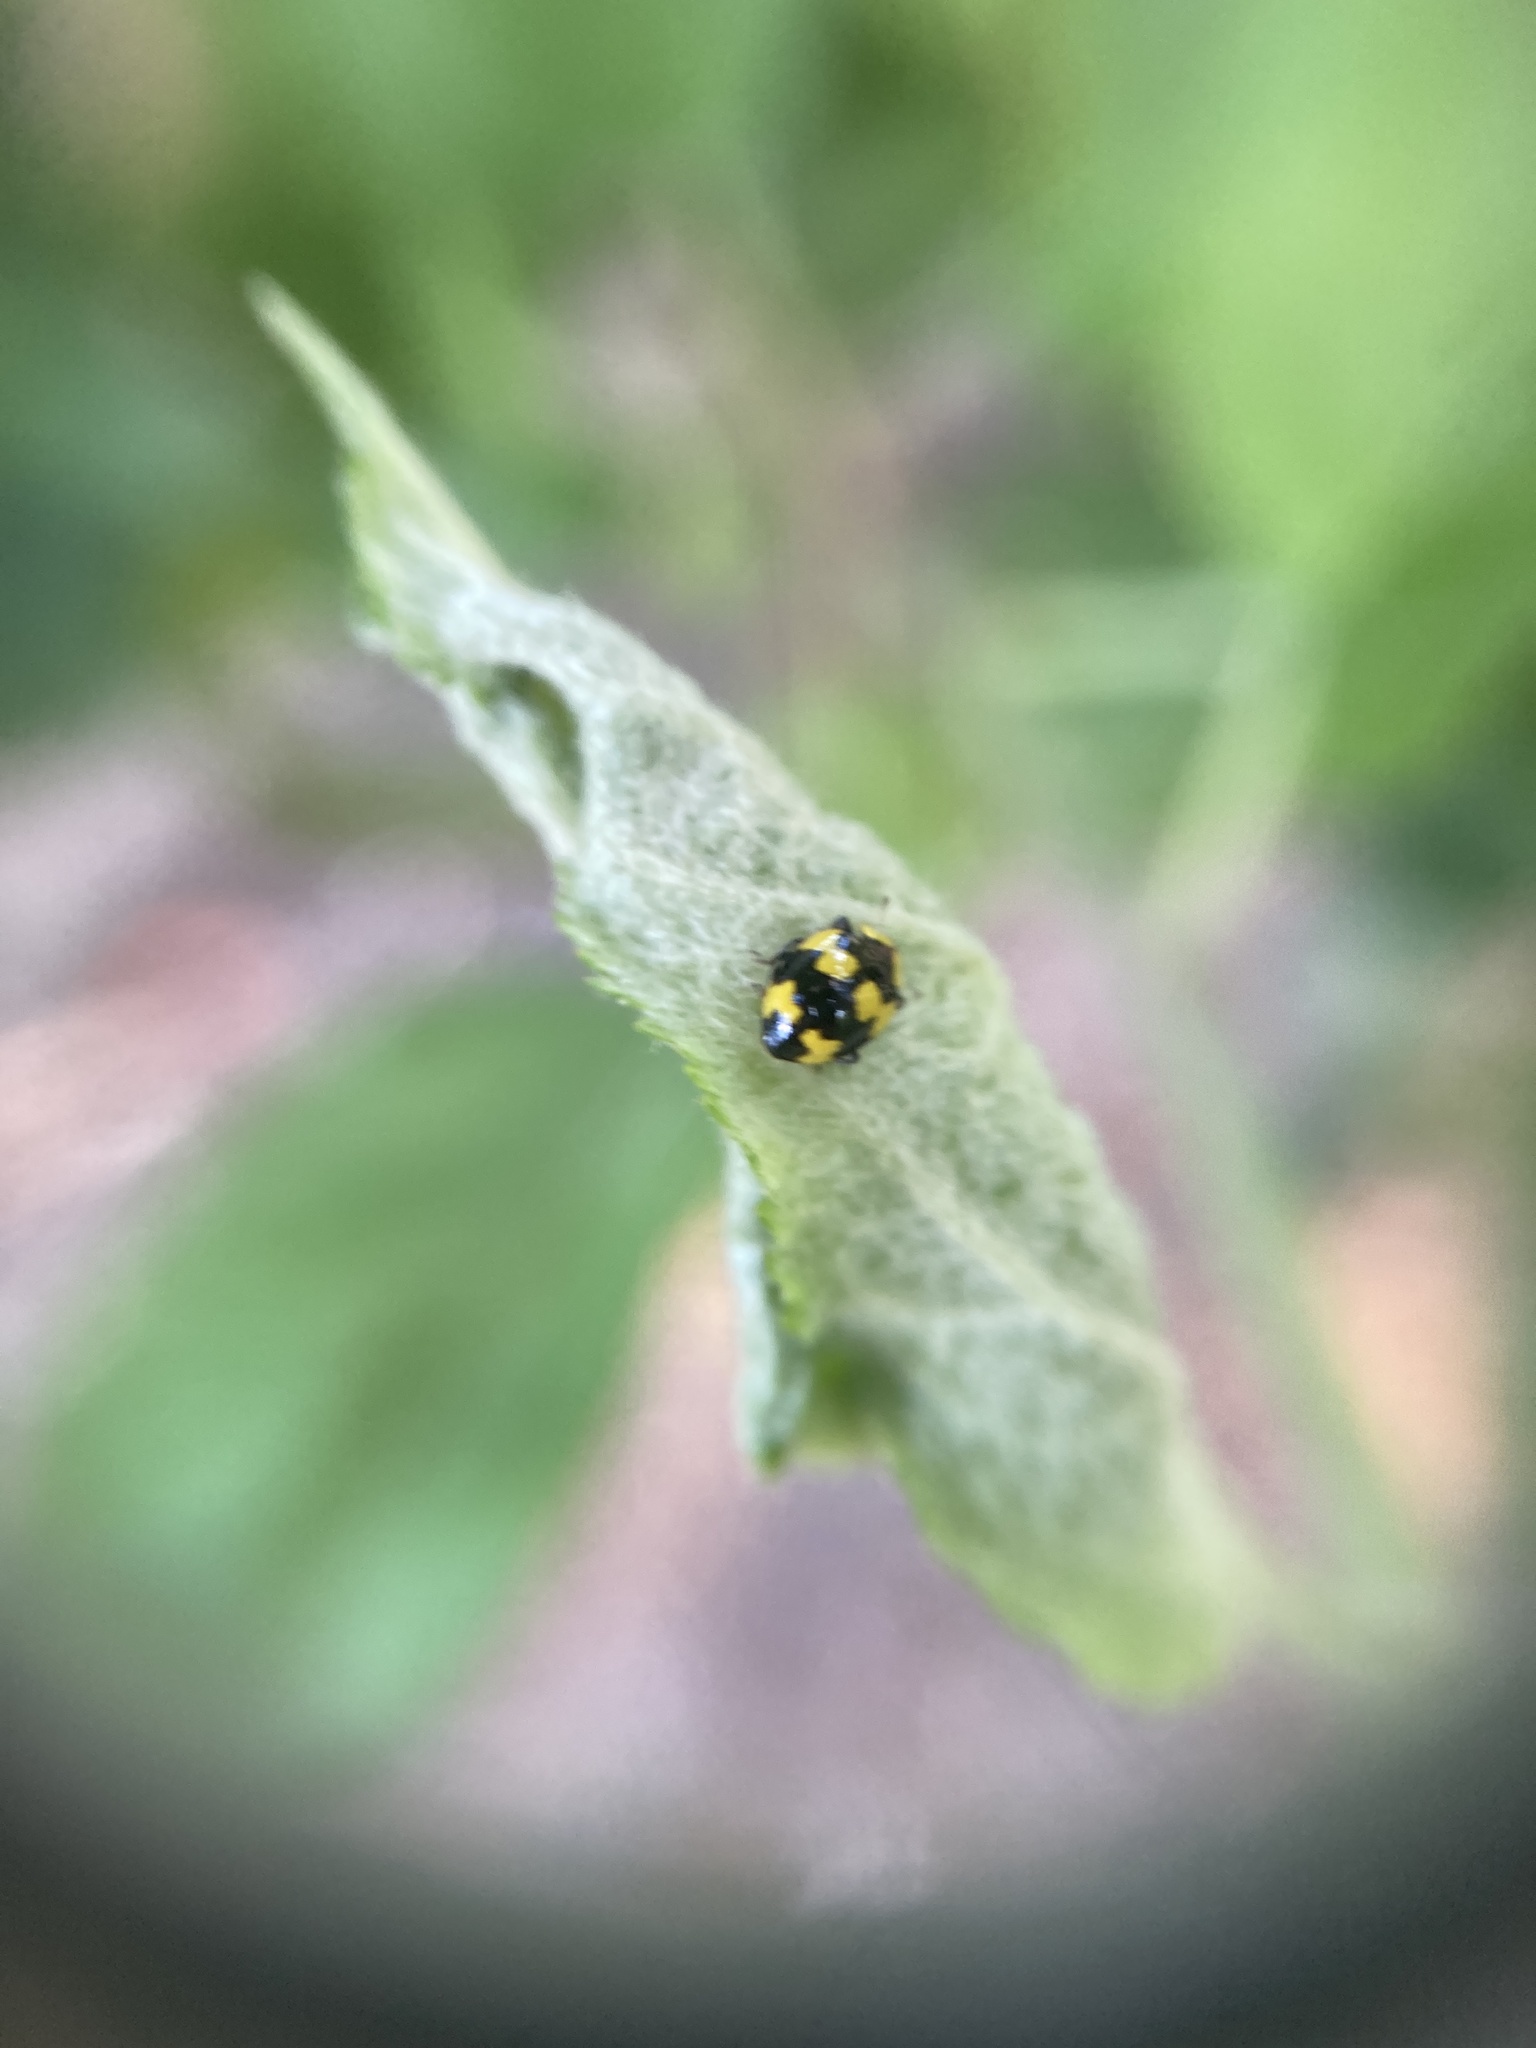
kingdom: Animalia
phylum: Arthropoda
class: Insecta
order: Coleoptera
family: Coccinellidae
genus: Illeis
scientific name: Illeis galbula
